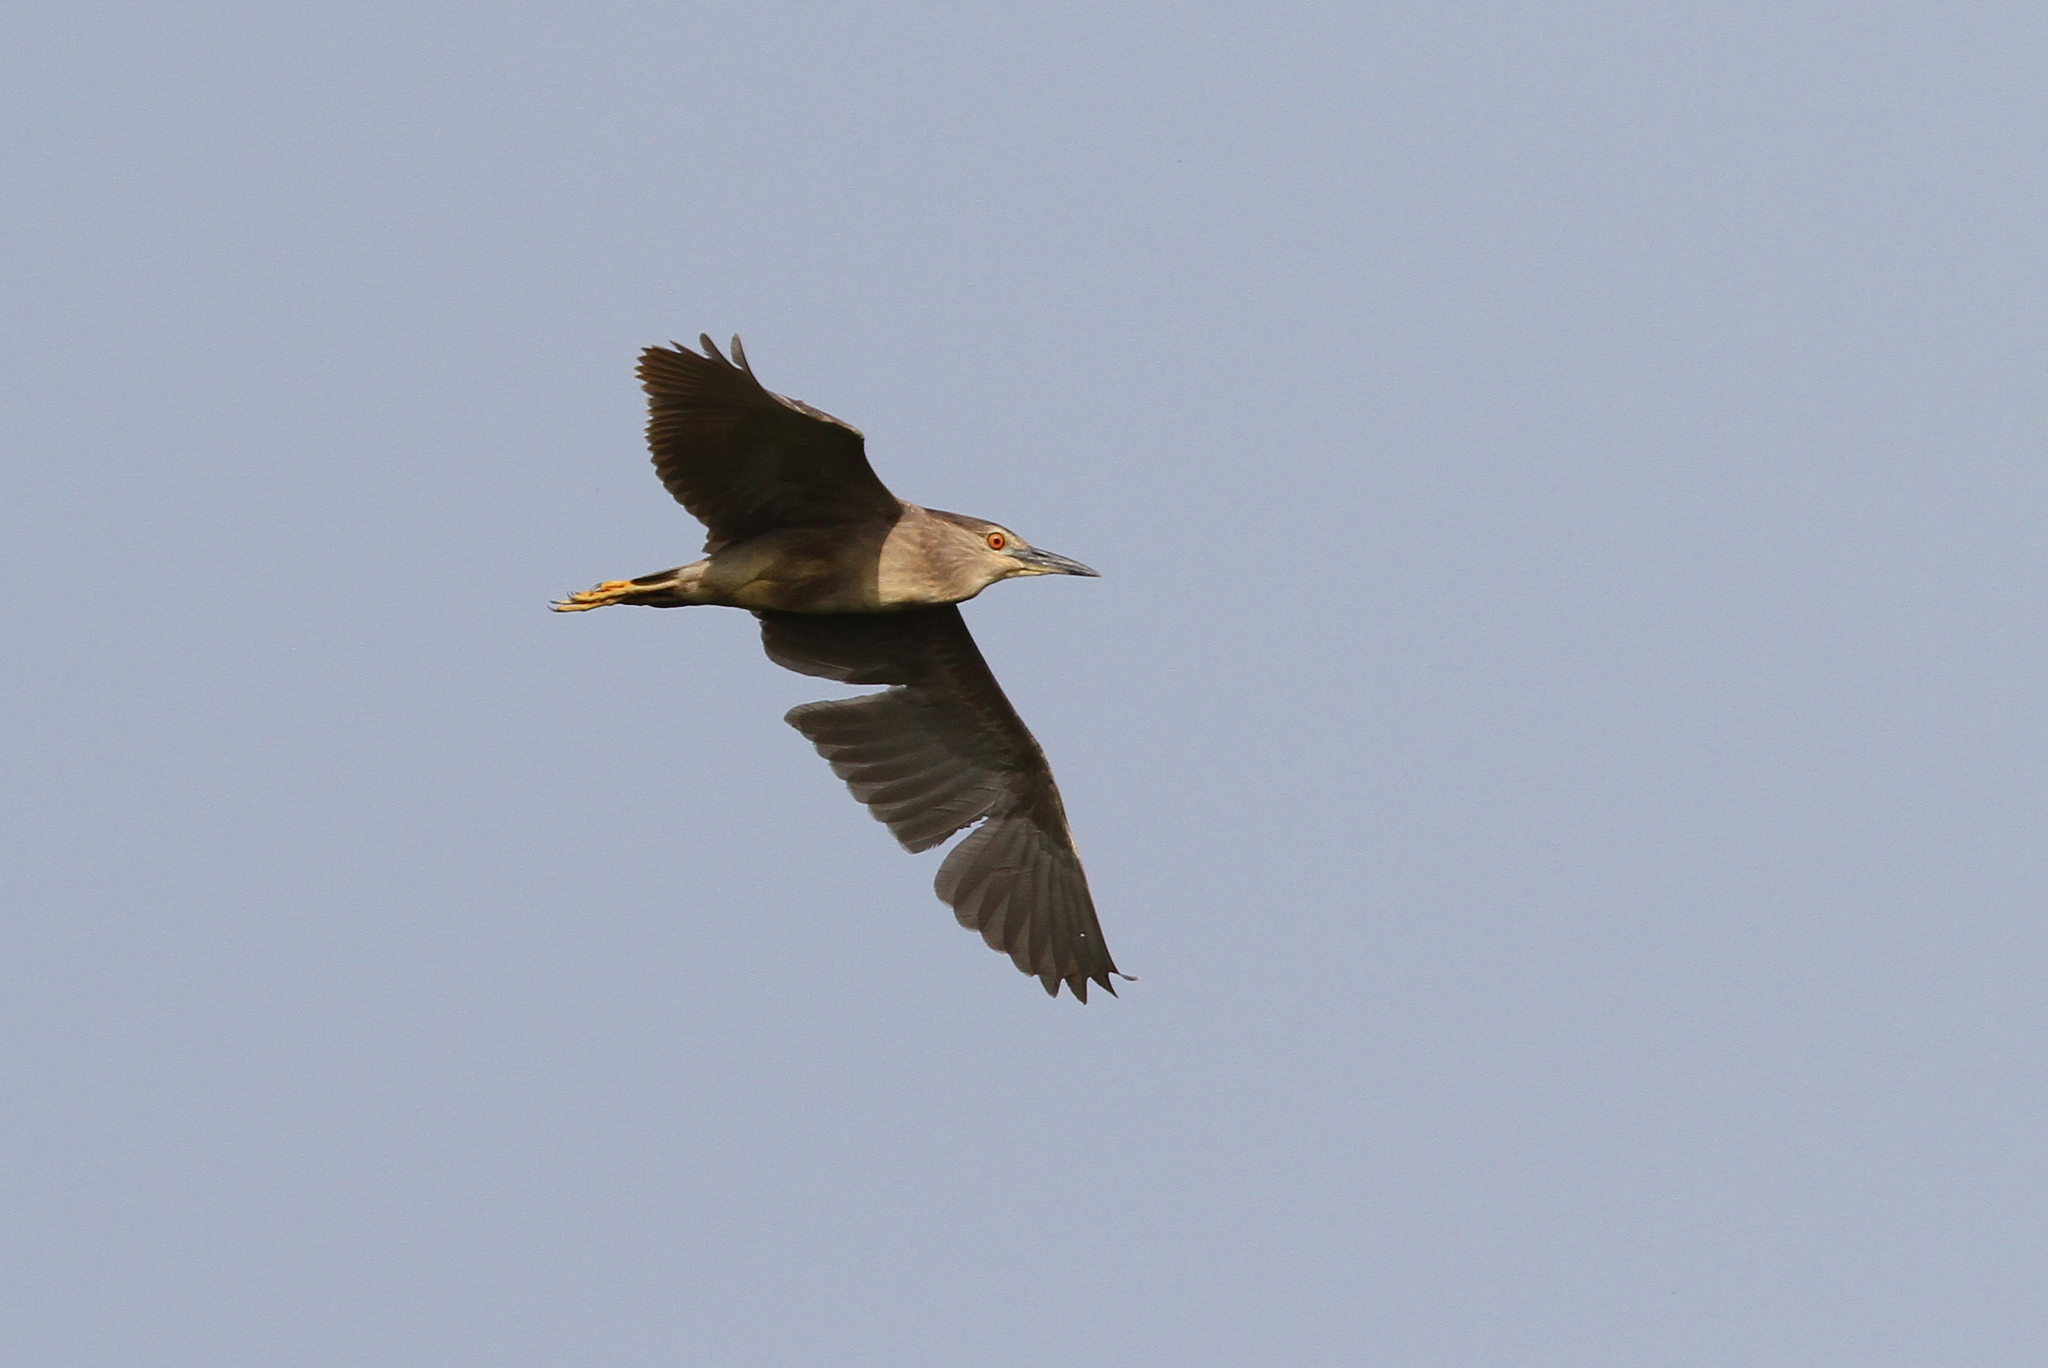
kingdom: Animalia
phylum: Chordata
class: Aves
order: Pelecaniformes
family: Ardeidae
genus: Nycticorax
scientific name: Nycticorax nycticorax
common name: Black-crowned night heron
